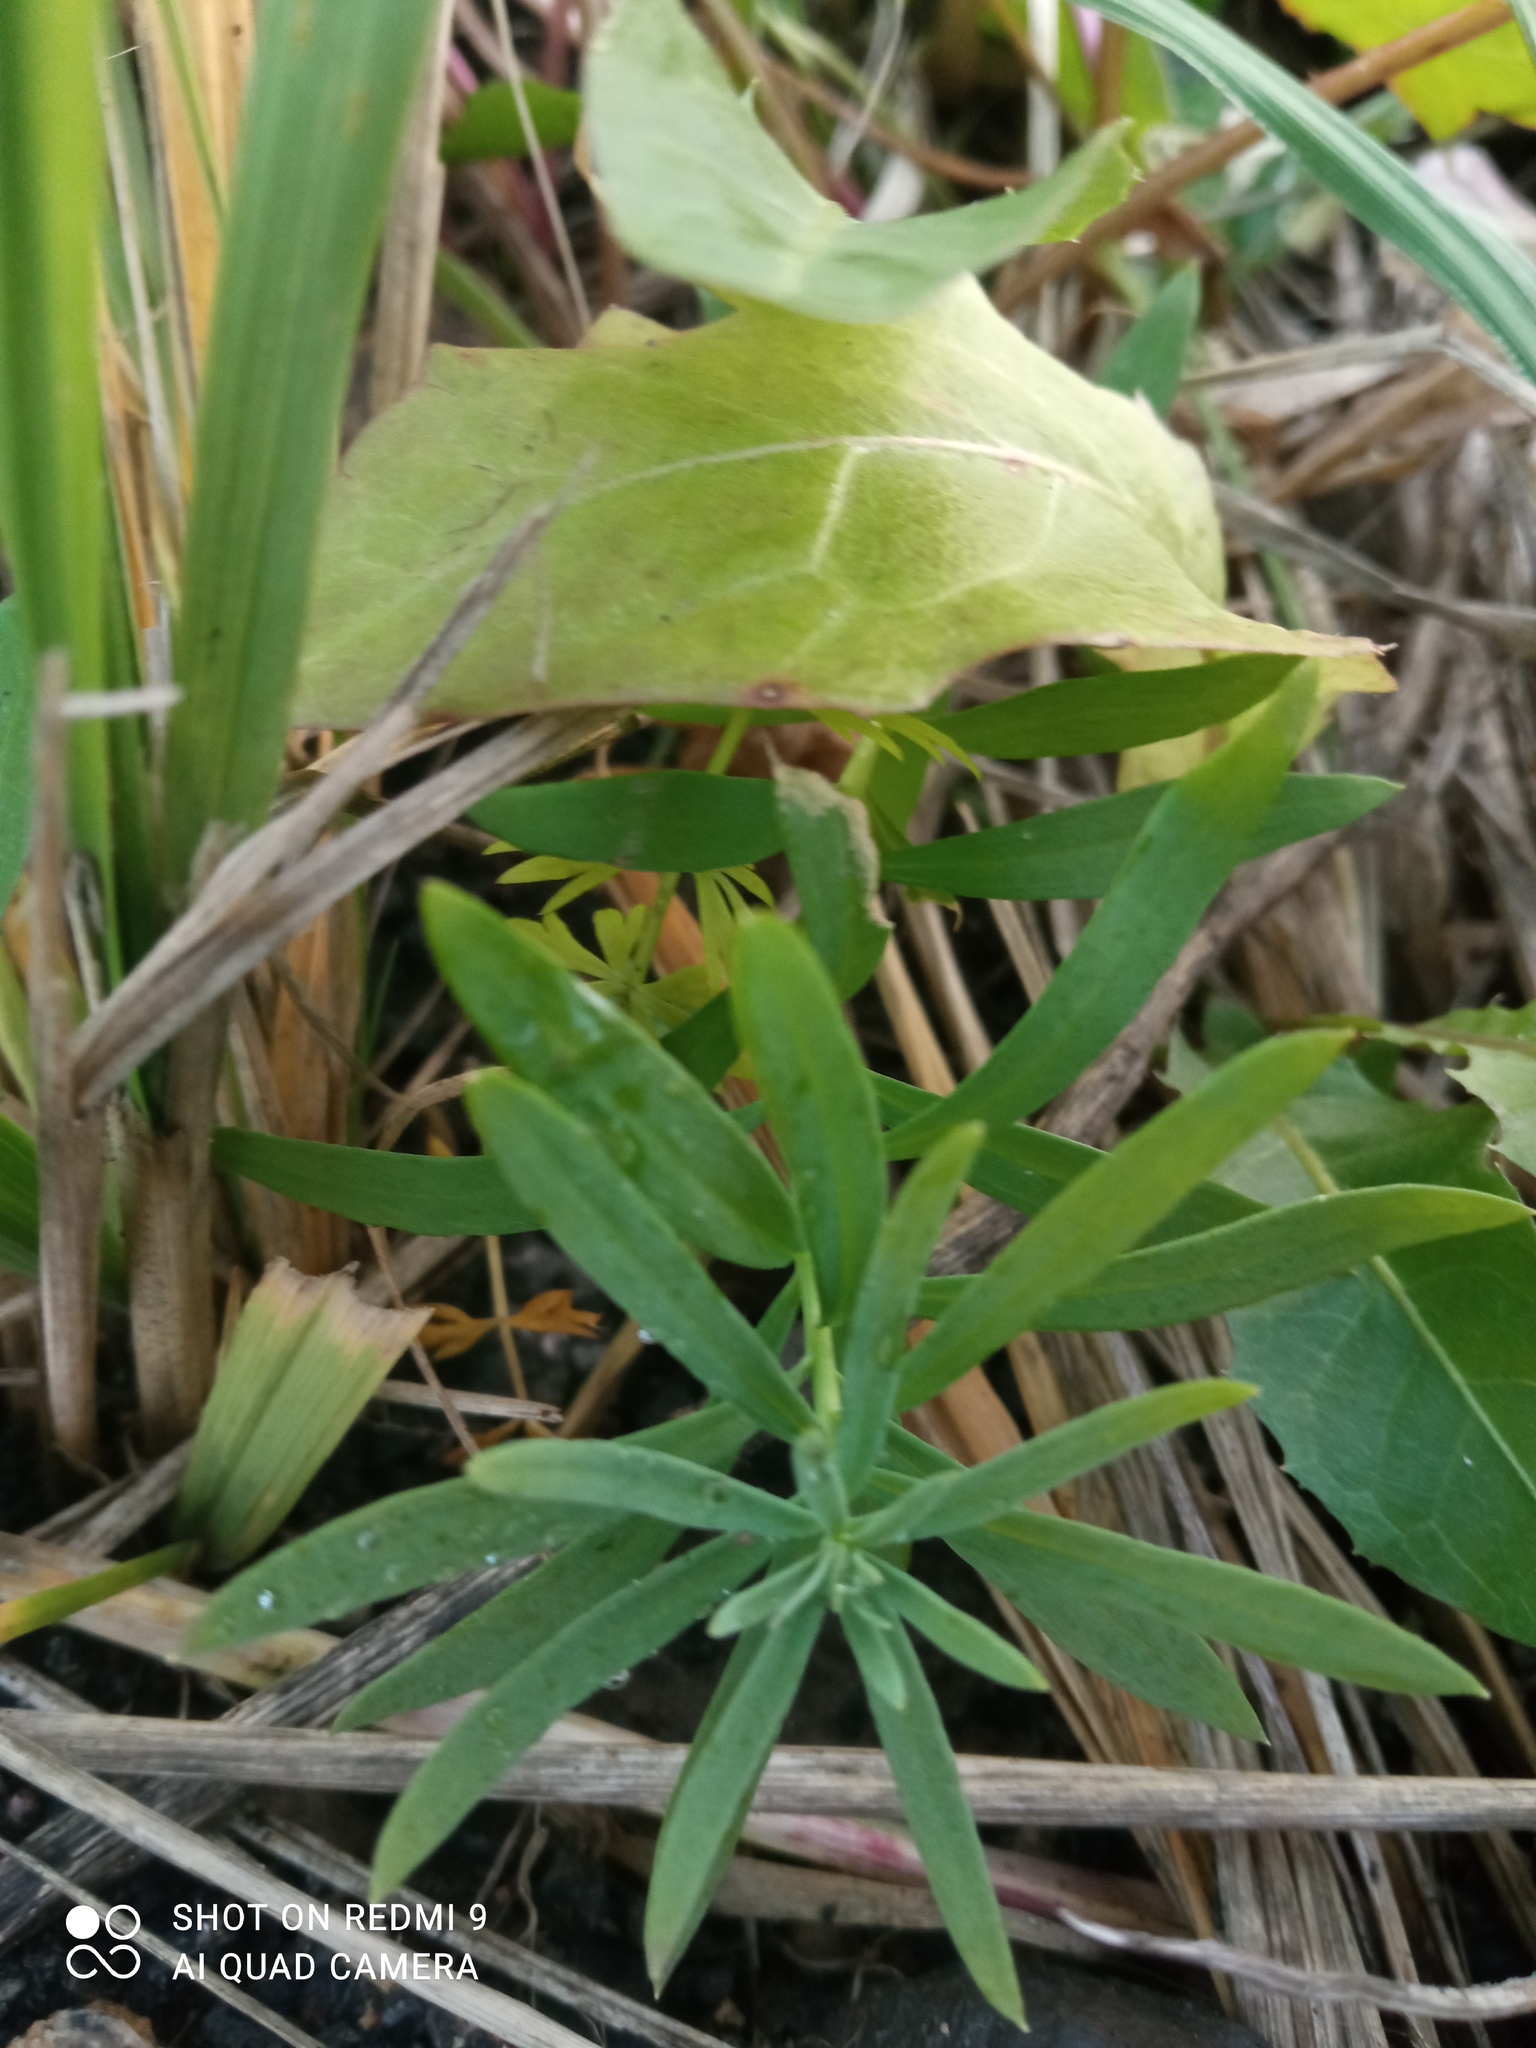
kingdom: Plantae
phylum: Tracheophyta
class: Magnoliopsida
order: Lamiales
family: Plantaginaceae
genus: Linaria
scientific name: Linaria vulgaris
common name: Butter and eggs
